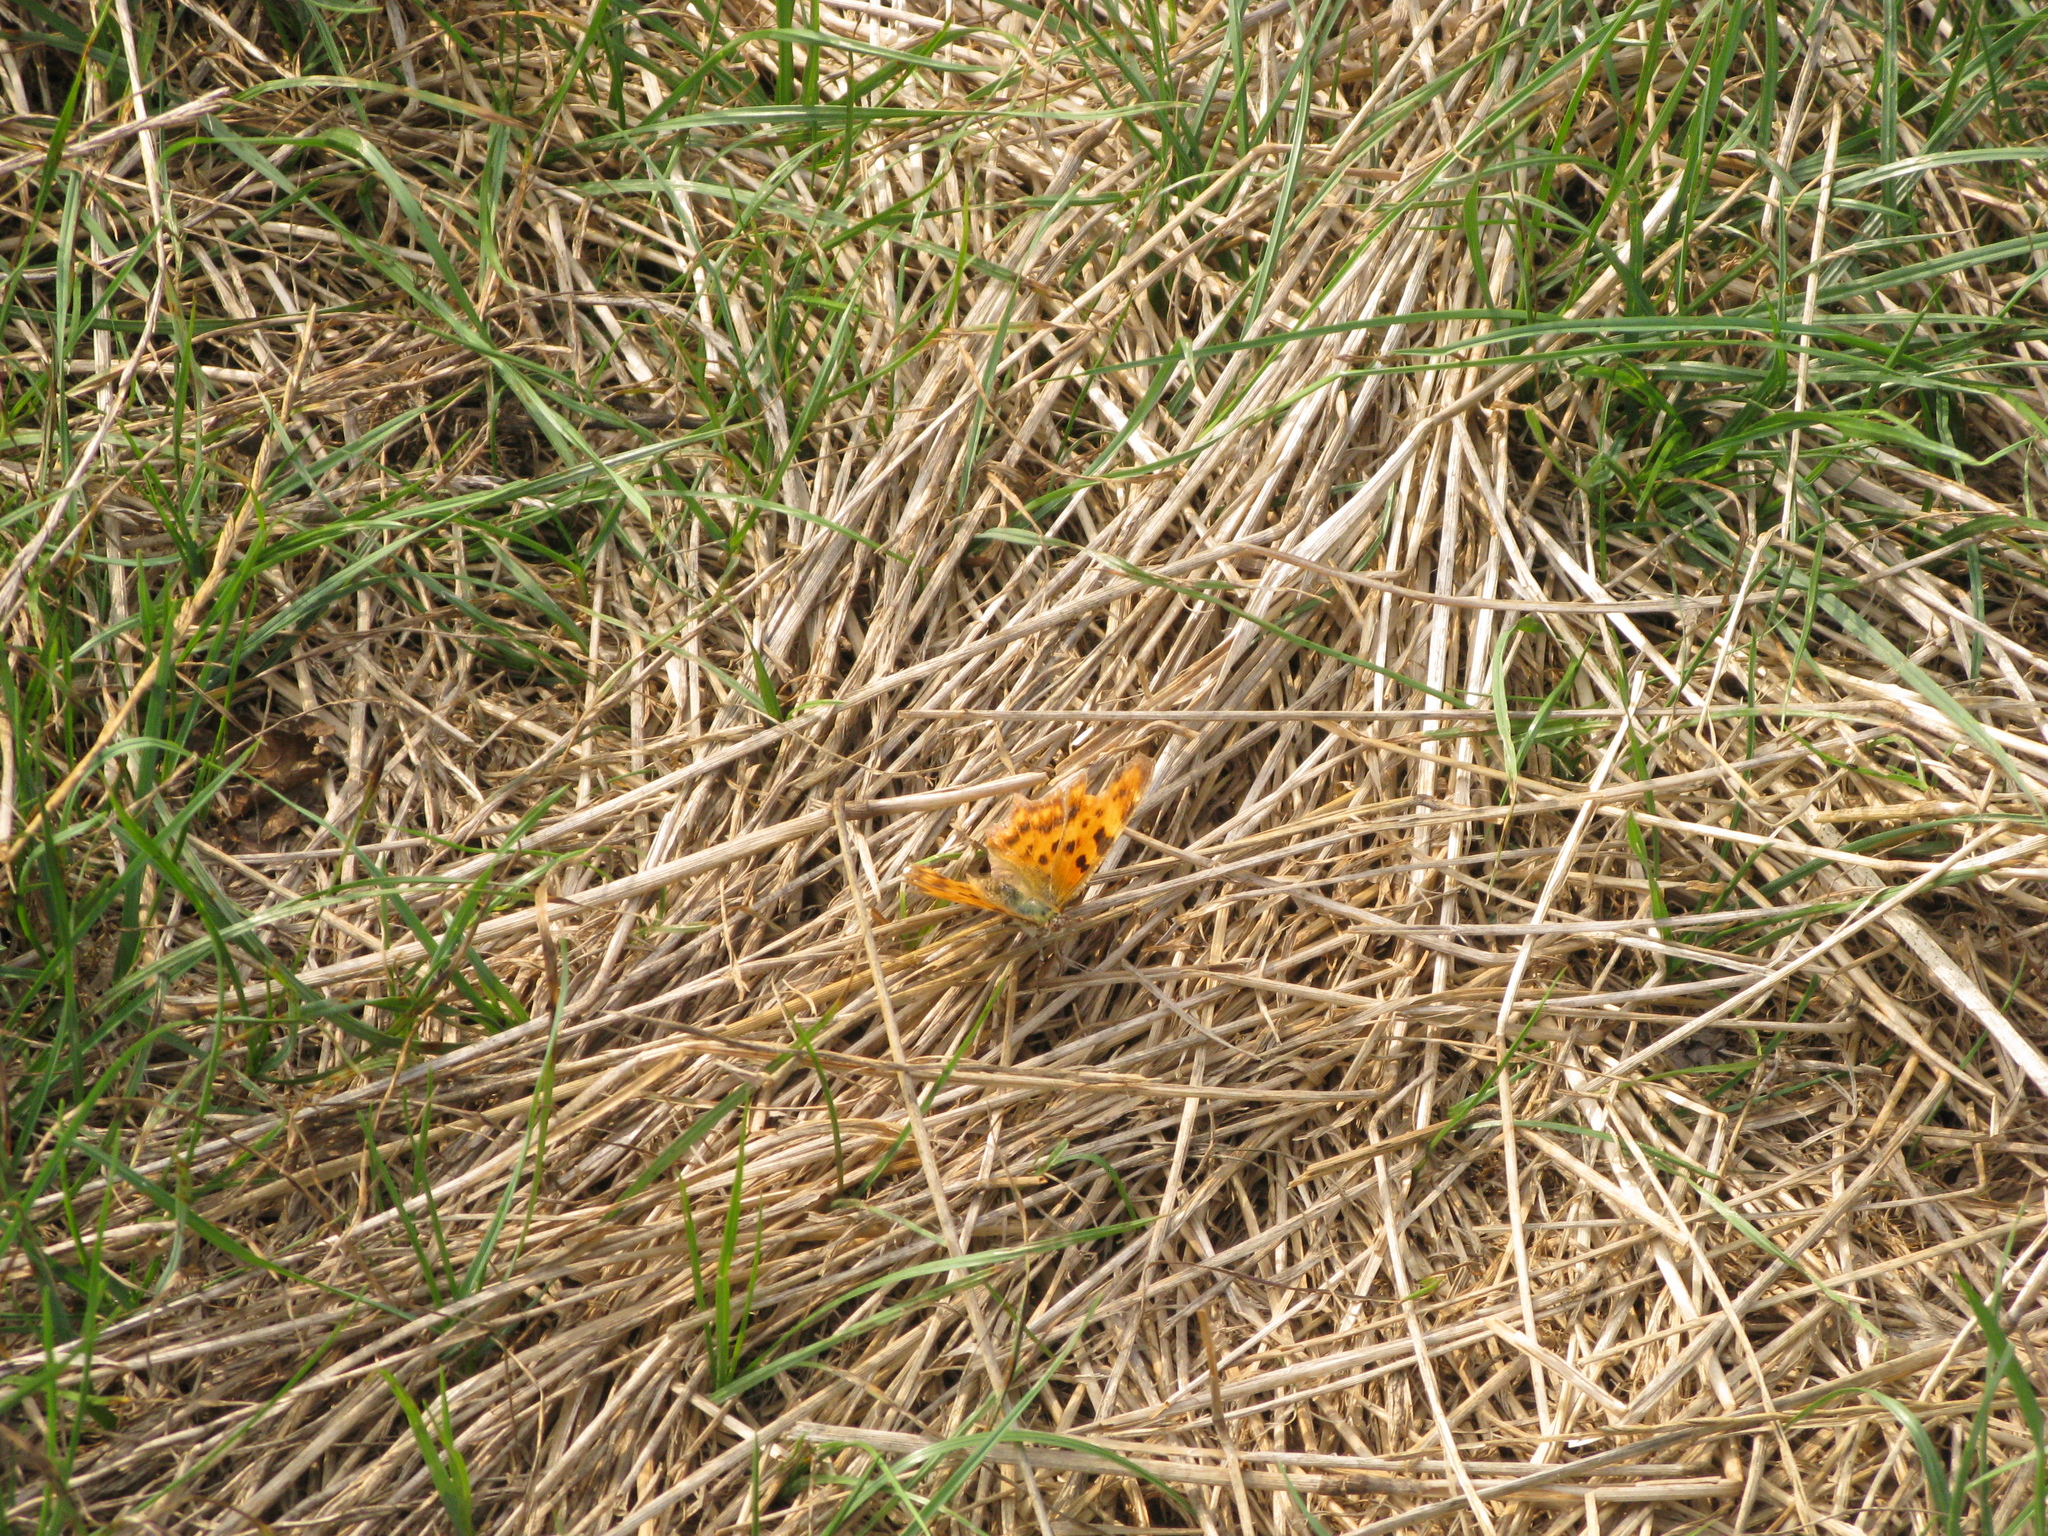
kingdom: Animalia
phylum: Arthropoda
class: Insecta
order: Lepidoptera
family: Nymphalidae
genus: Polygonia
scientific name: Polygonia c-album
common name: Comma
